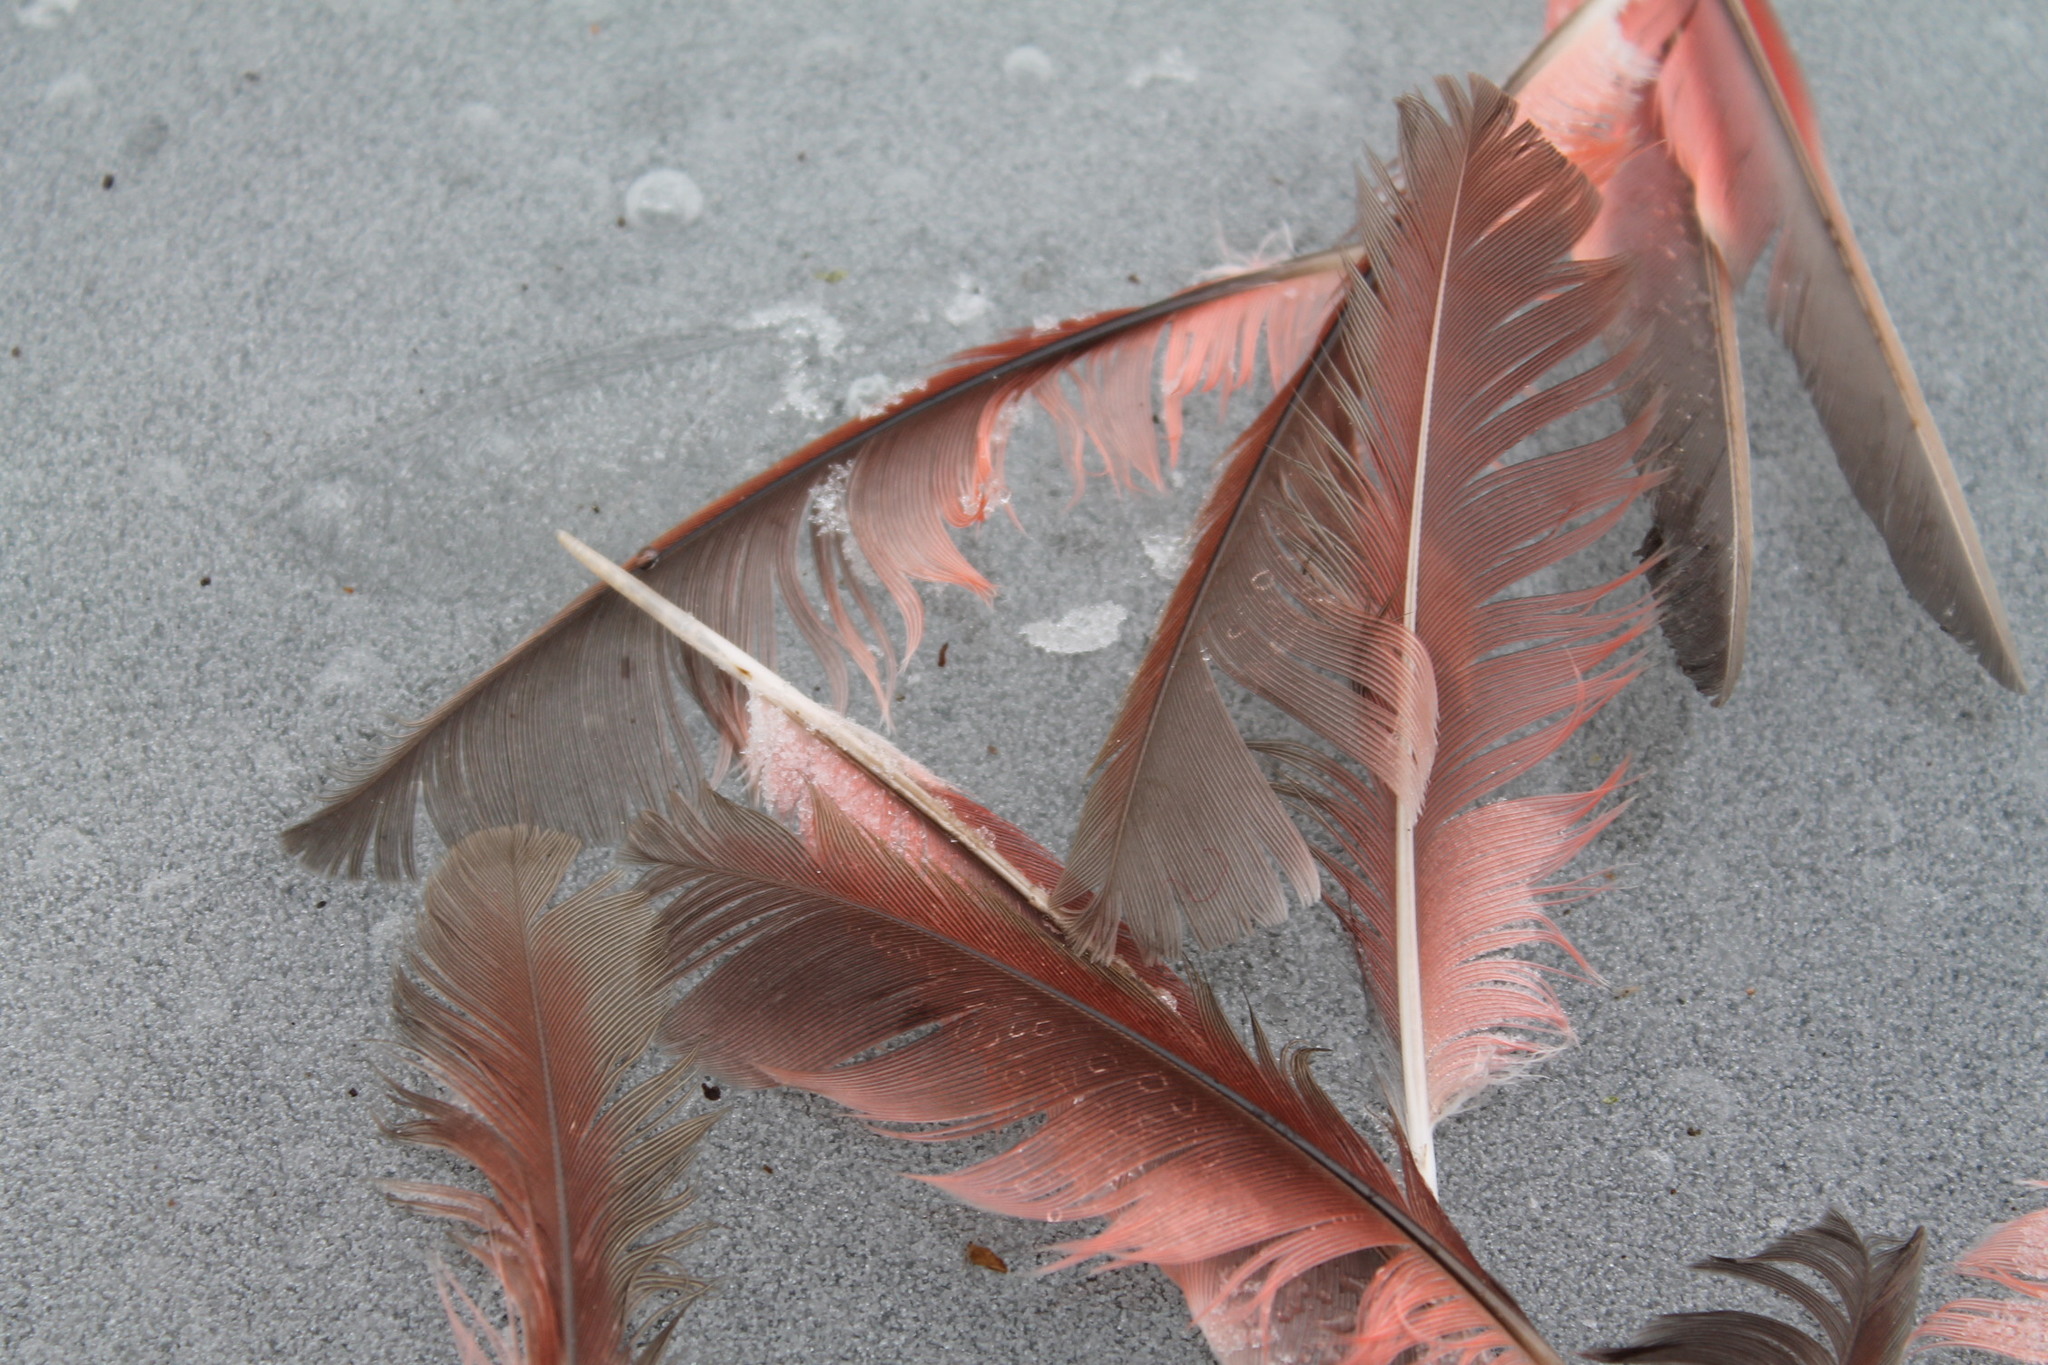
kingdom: Animalia
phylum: Chordata
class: Aves
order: Passeriformes
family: Cardinalidae
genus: Cardinalis
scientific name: Cardinalis cardinalis
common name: Northern cardinal
